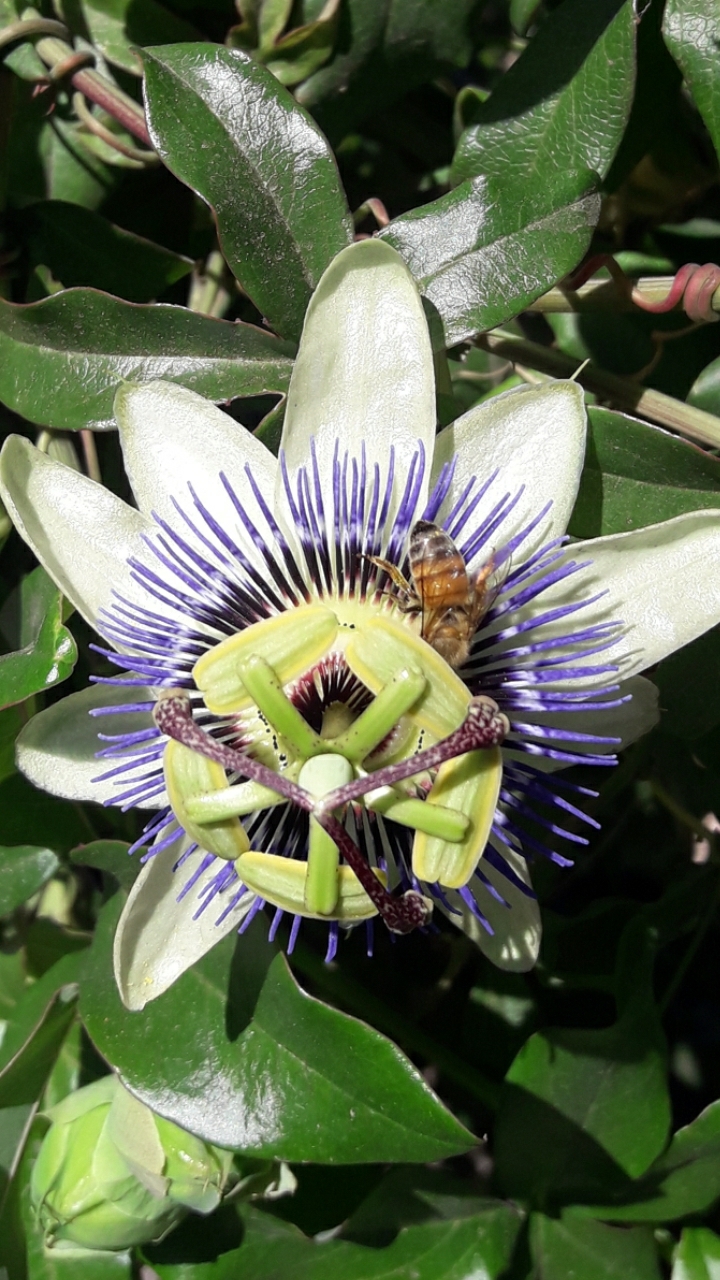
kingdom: Animalia
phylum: Arthropoda
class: Insecta
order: Hymenoptera
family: Apidae
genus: Apis
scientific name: Apis mellifera
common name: Honey bee
